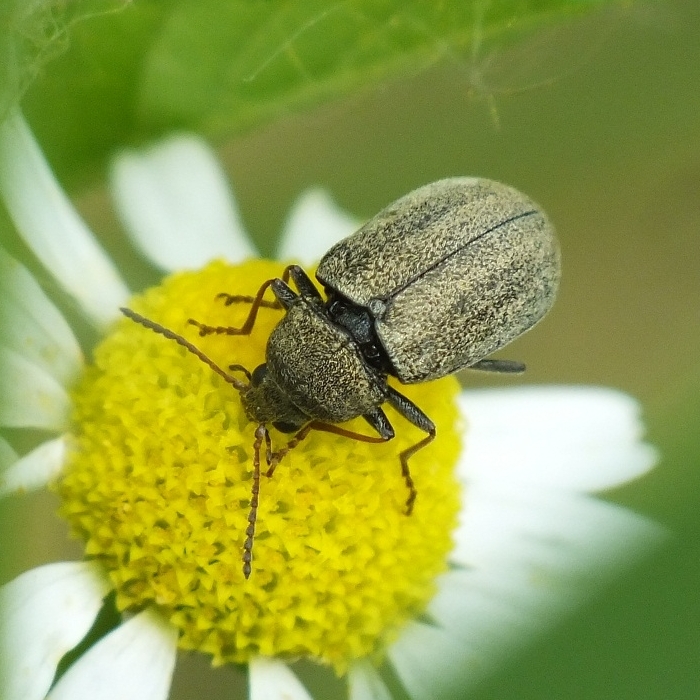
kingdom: Animalia
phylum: Arthropoda
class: Insecta
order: Coleoptera
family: Mycteridae
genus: Mycterus
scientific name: Mycterus tibialis
